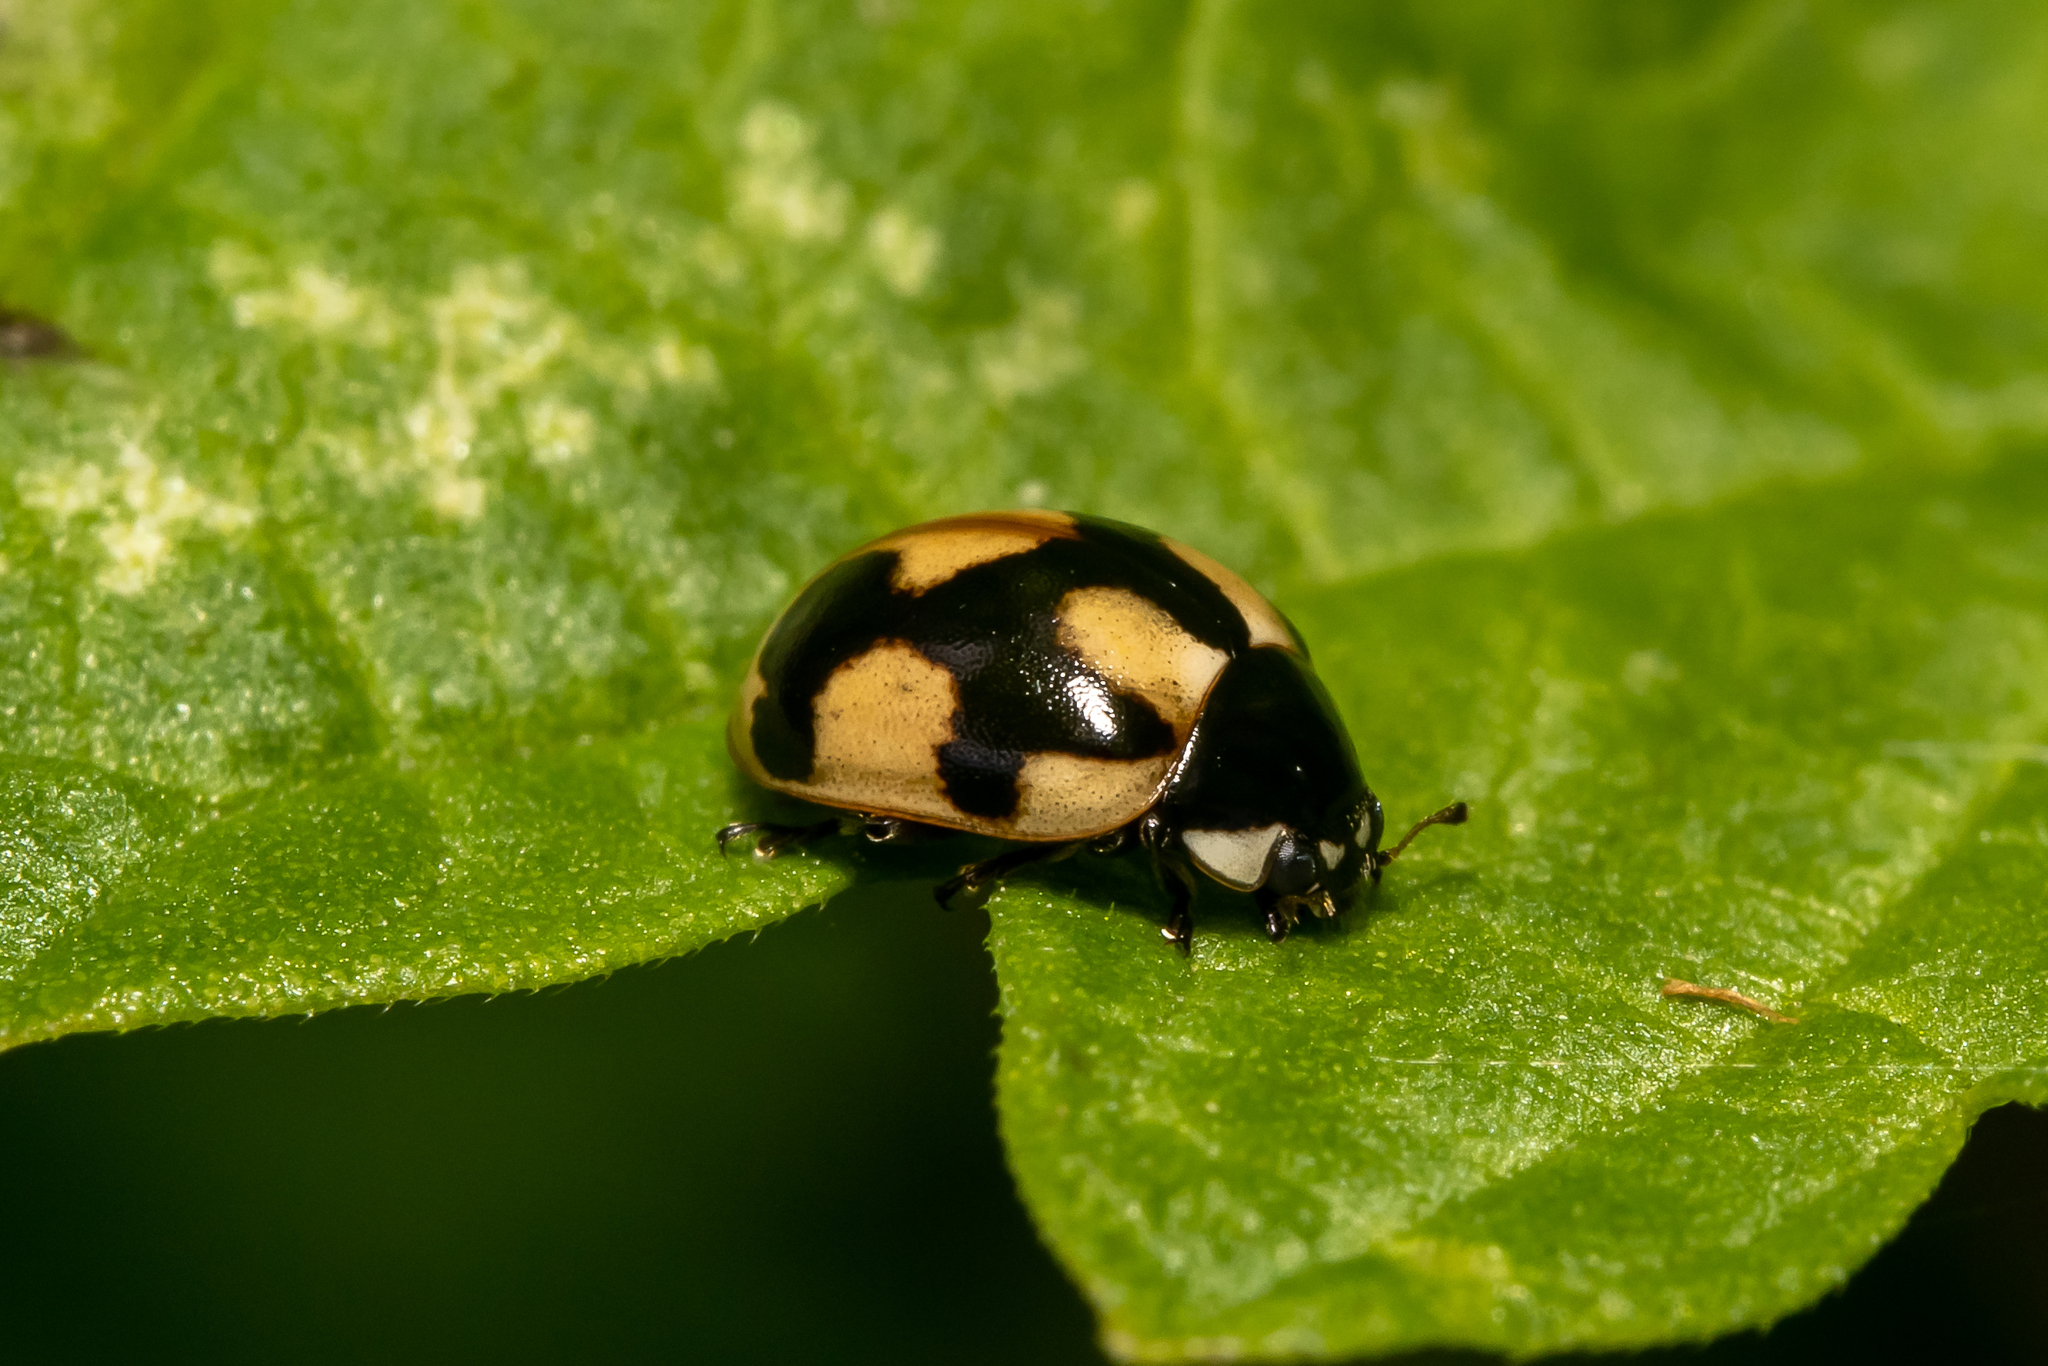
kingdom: Animalia
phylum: Arthropoda
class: Insecta
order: Coleoptera
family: Coccinellidae
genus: Coccinella
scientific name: Coccinella hieroglyphica
